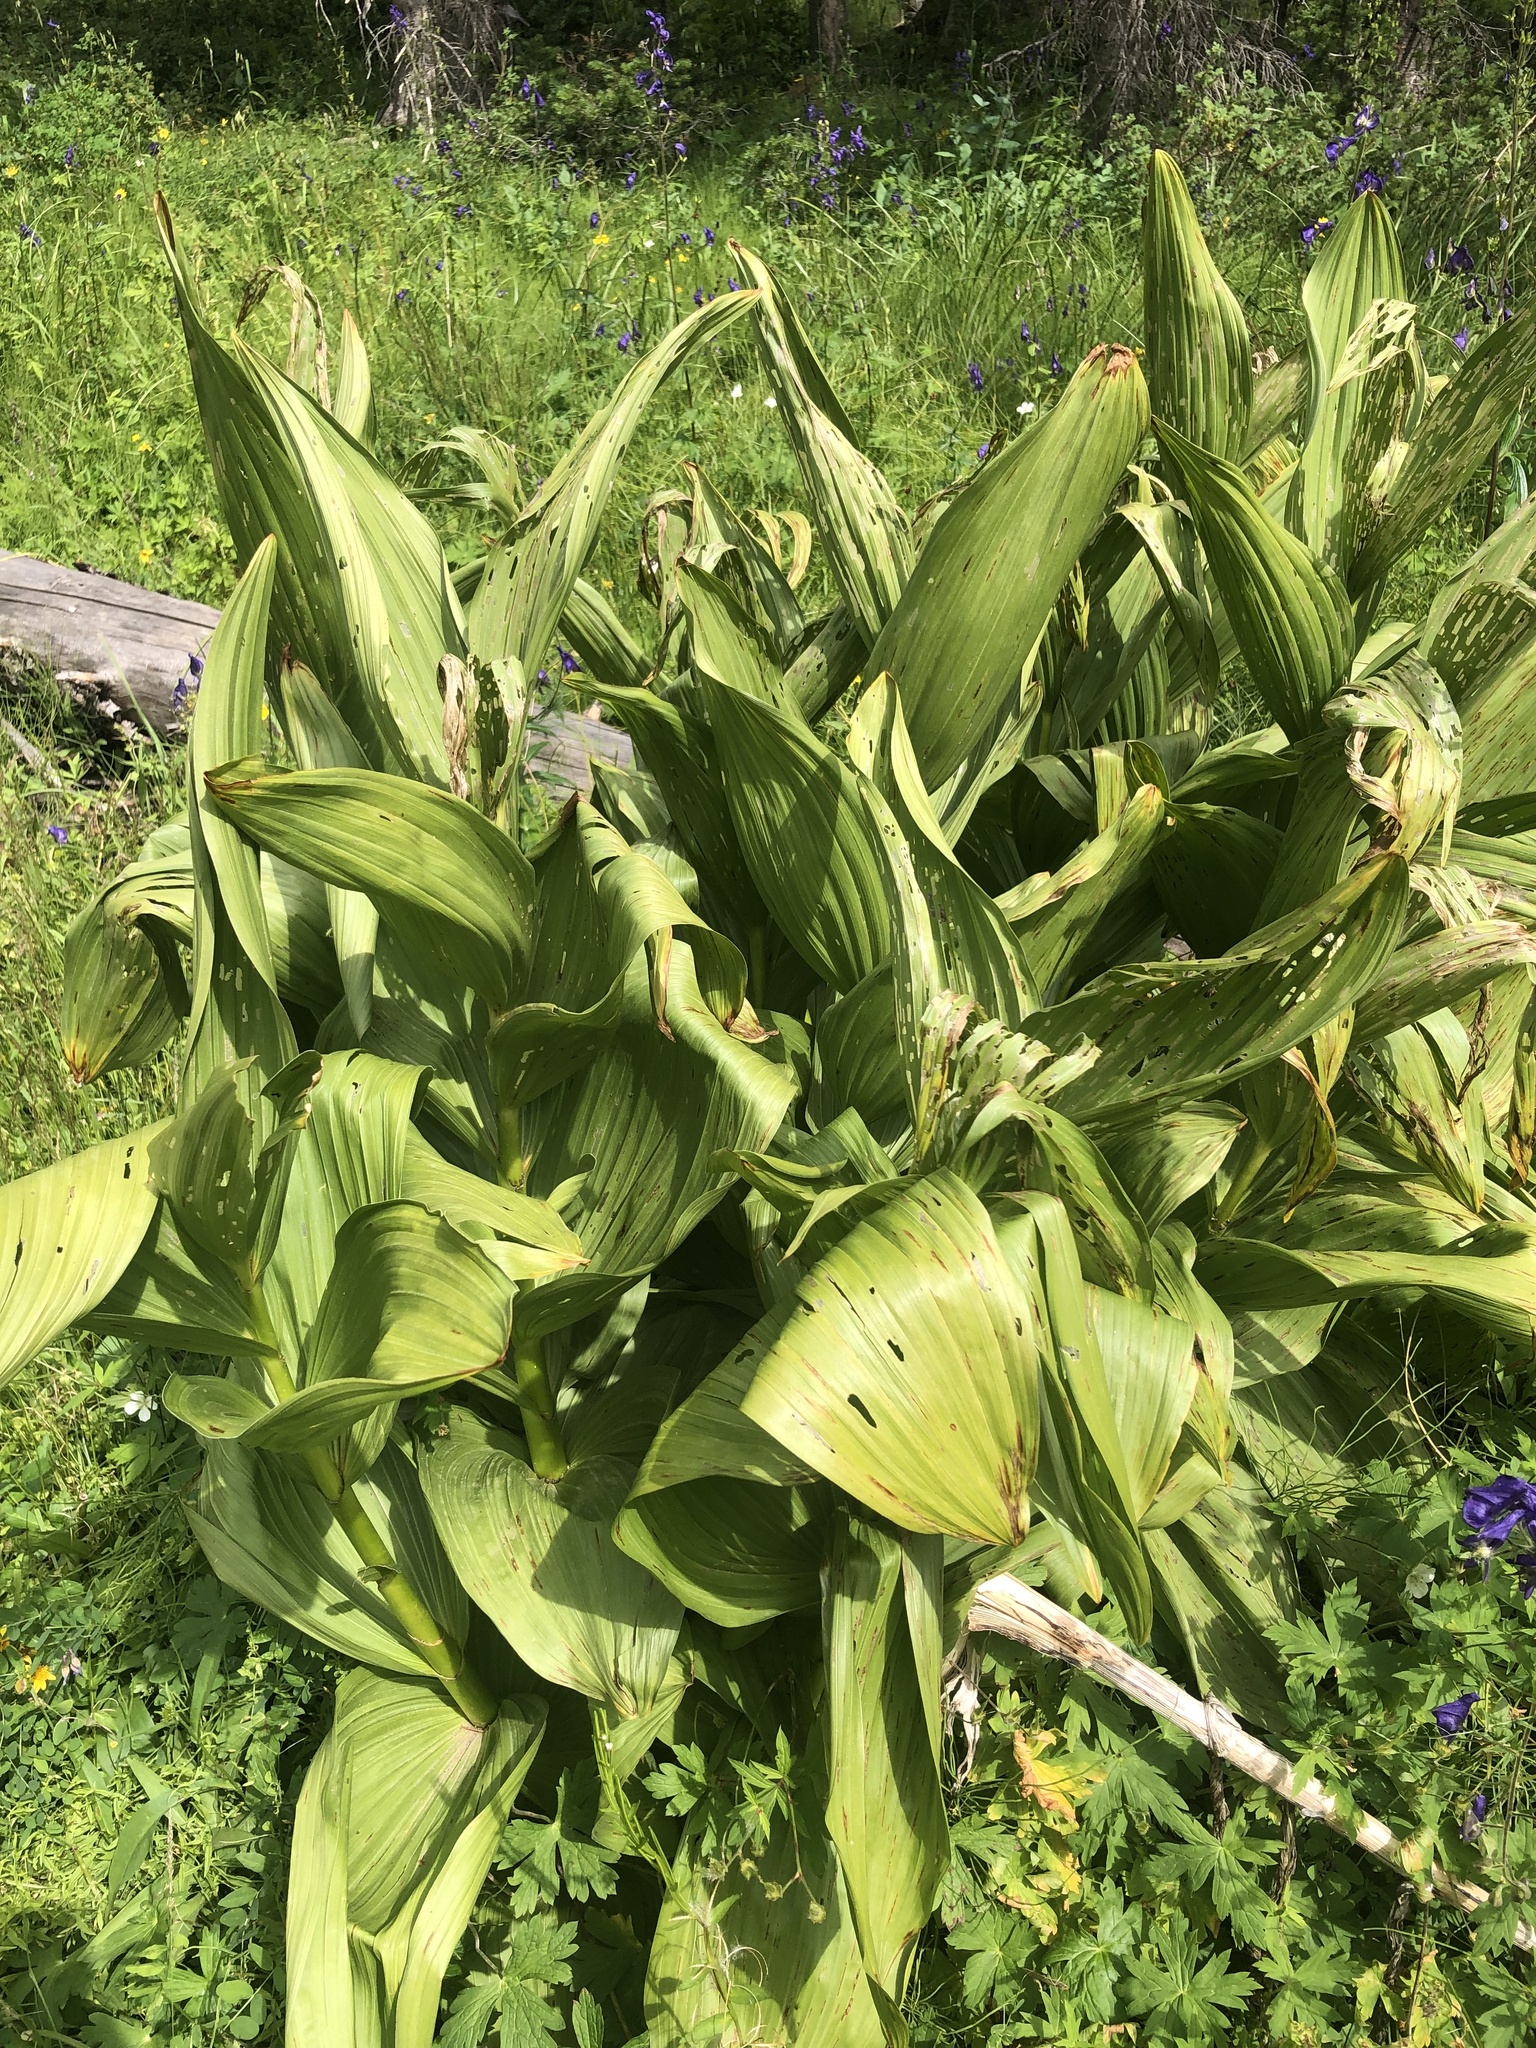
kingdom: Plantae
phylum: Tracheophyta
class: Liliopsida
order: Liliales
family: Melanthiaceae
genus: Veratrum
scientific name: Veratrum californicum
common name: California veratrum
